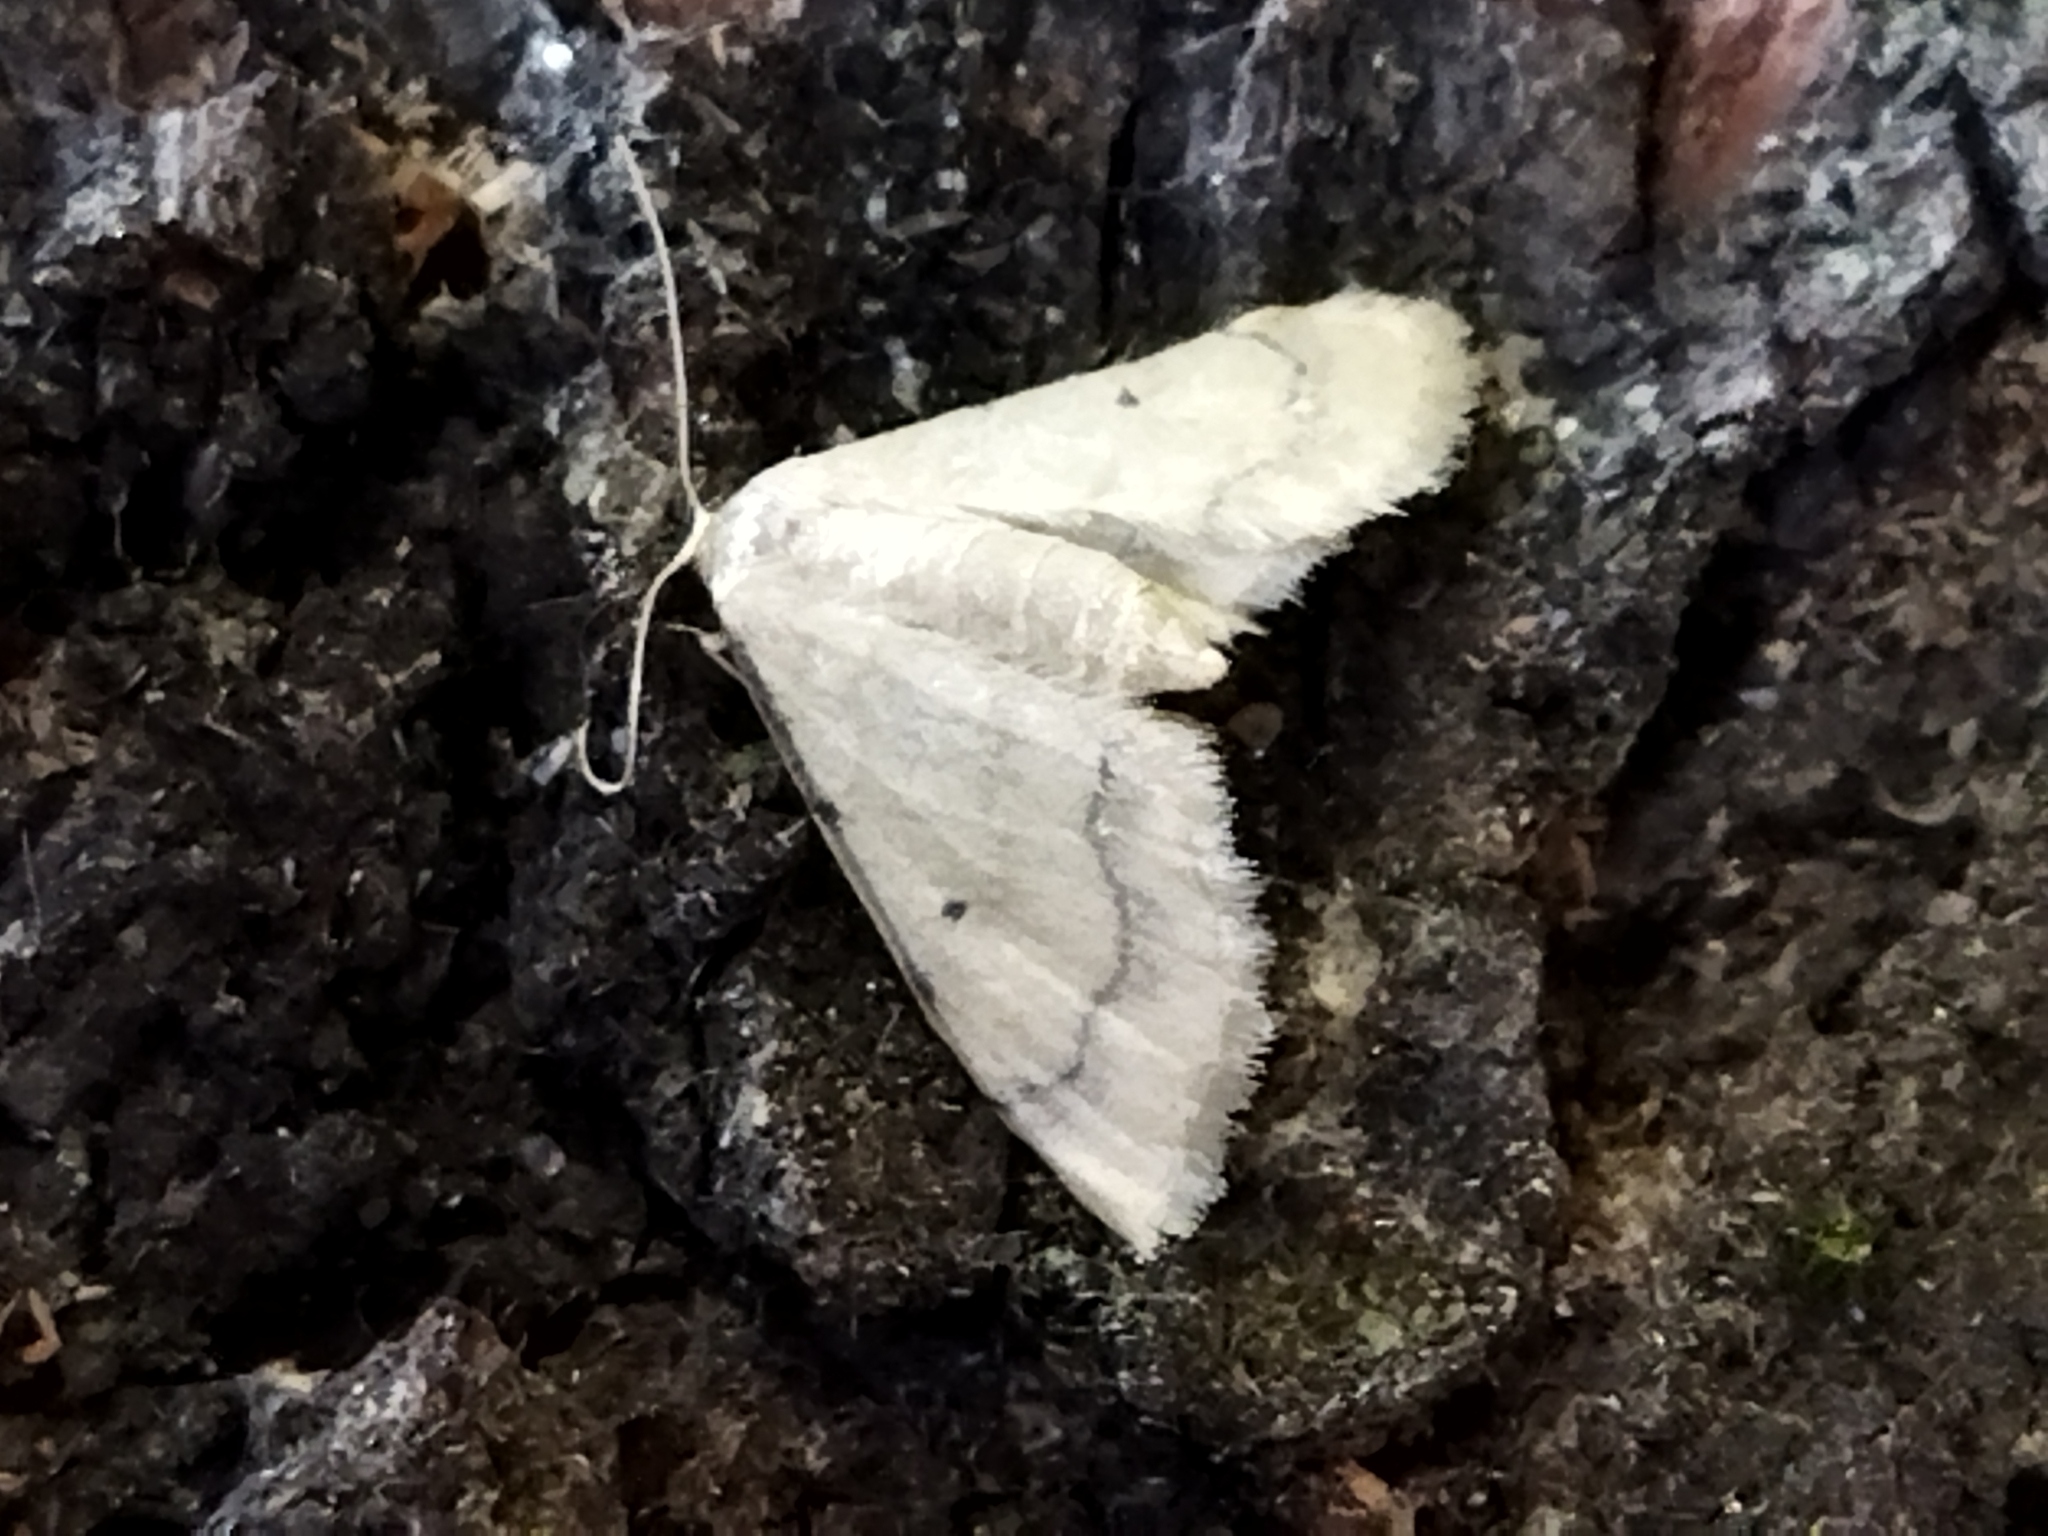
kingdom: Animalia
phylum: Arthropoda
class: Insecta
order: Lepidoptera
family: Geometridae
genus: Idaea
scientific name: Idaea politaria
